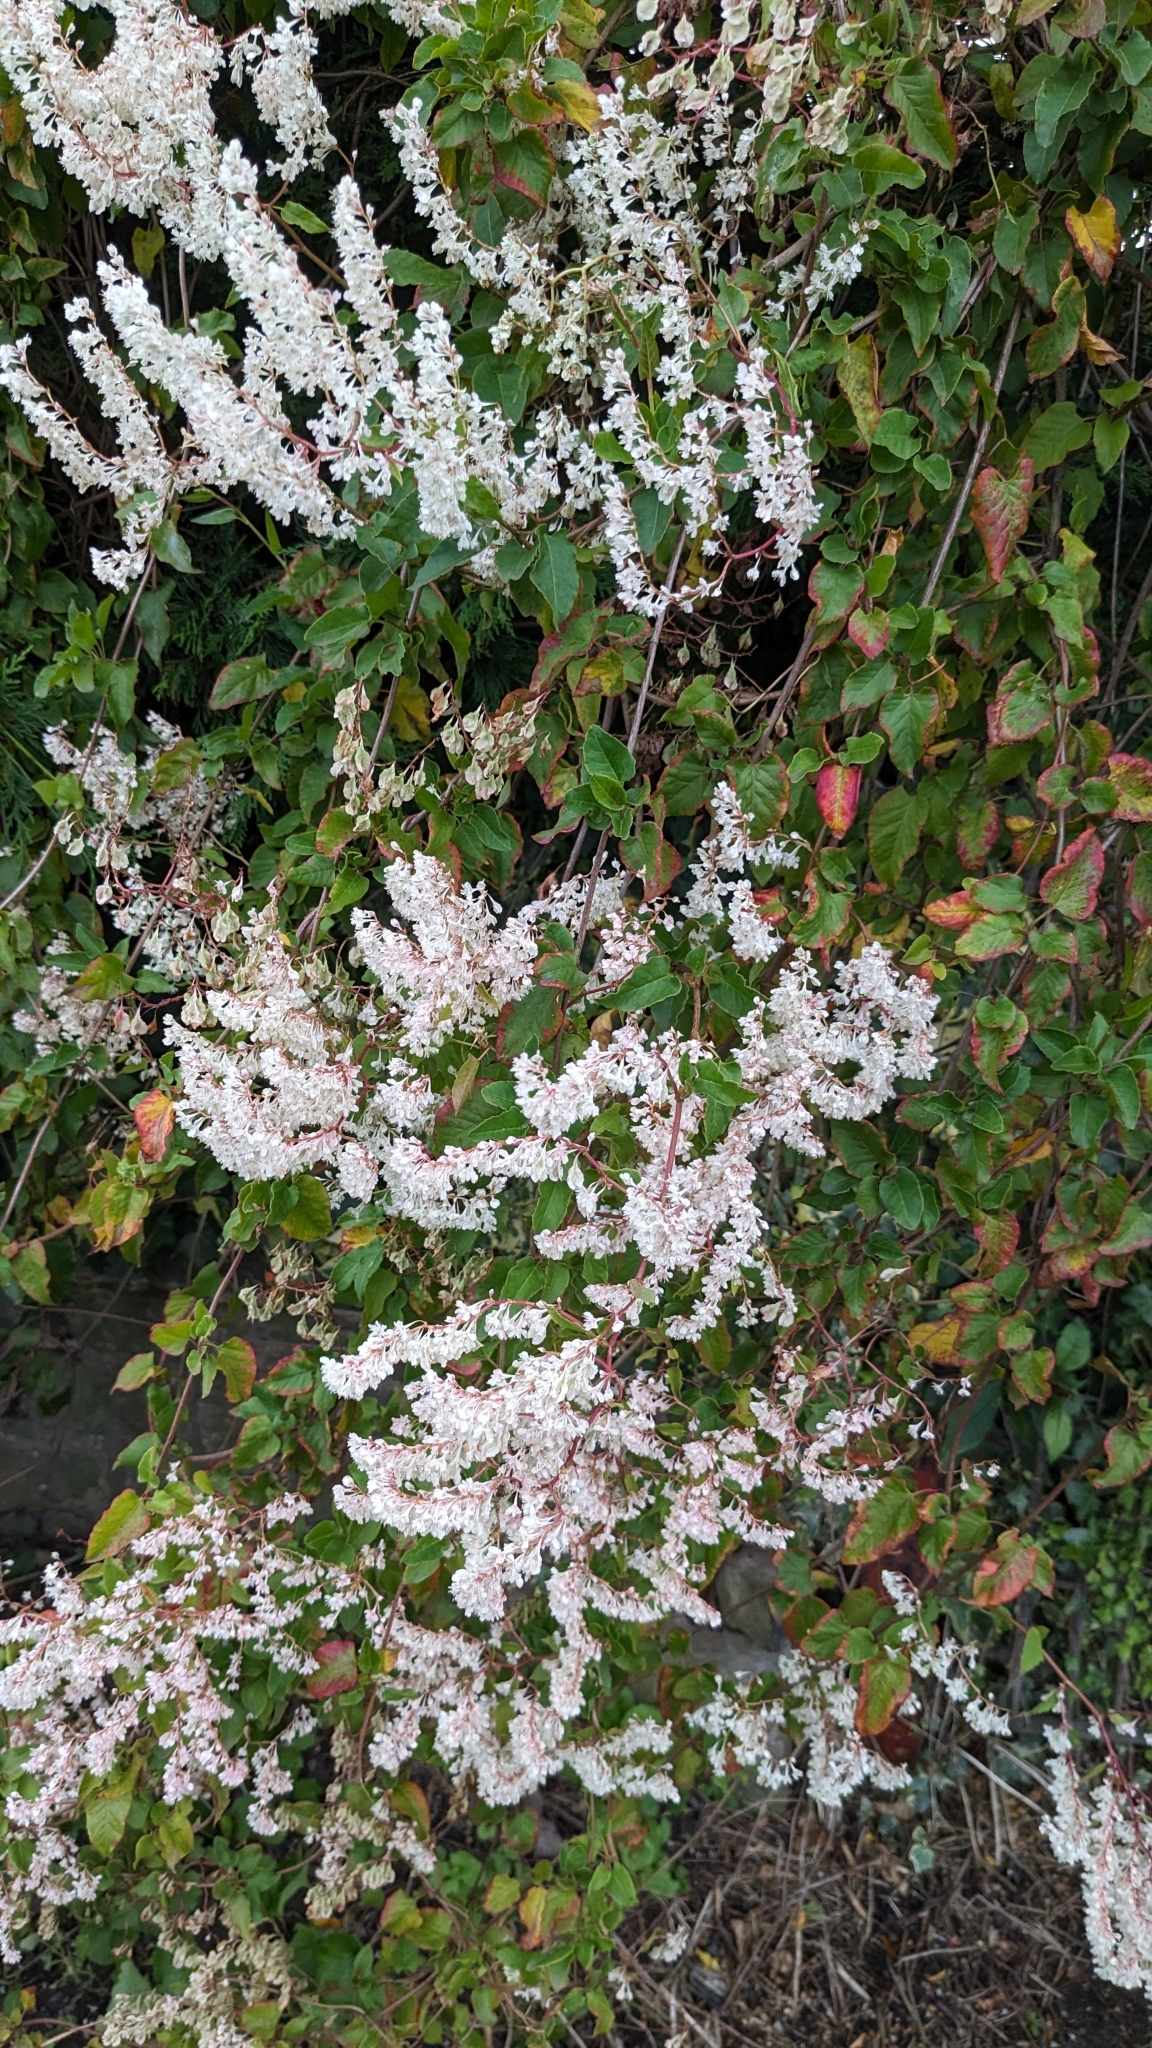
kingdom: Plantae
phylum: Tracheophyta
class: Magnoliopsida
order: Caryophyllales
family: Polygonaceae
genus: Fallopia
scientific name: Fallopia baldschuanica
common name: Russian-vine
